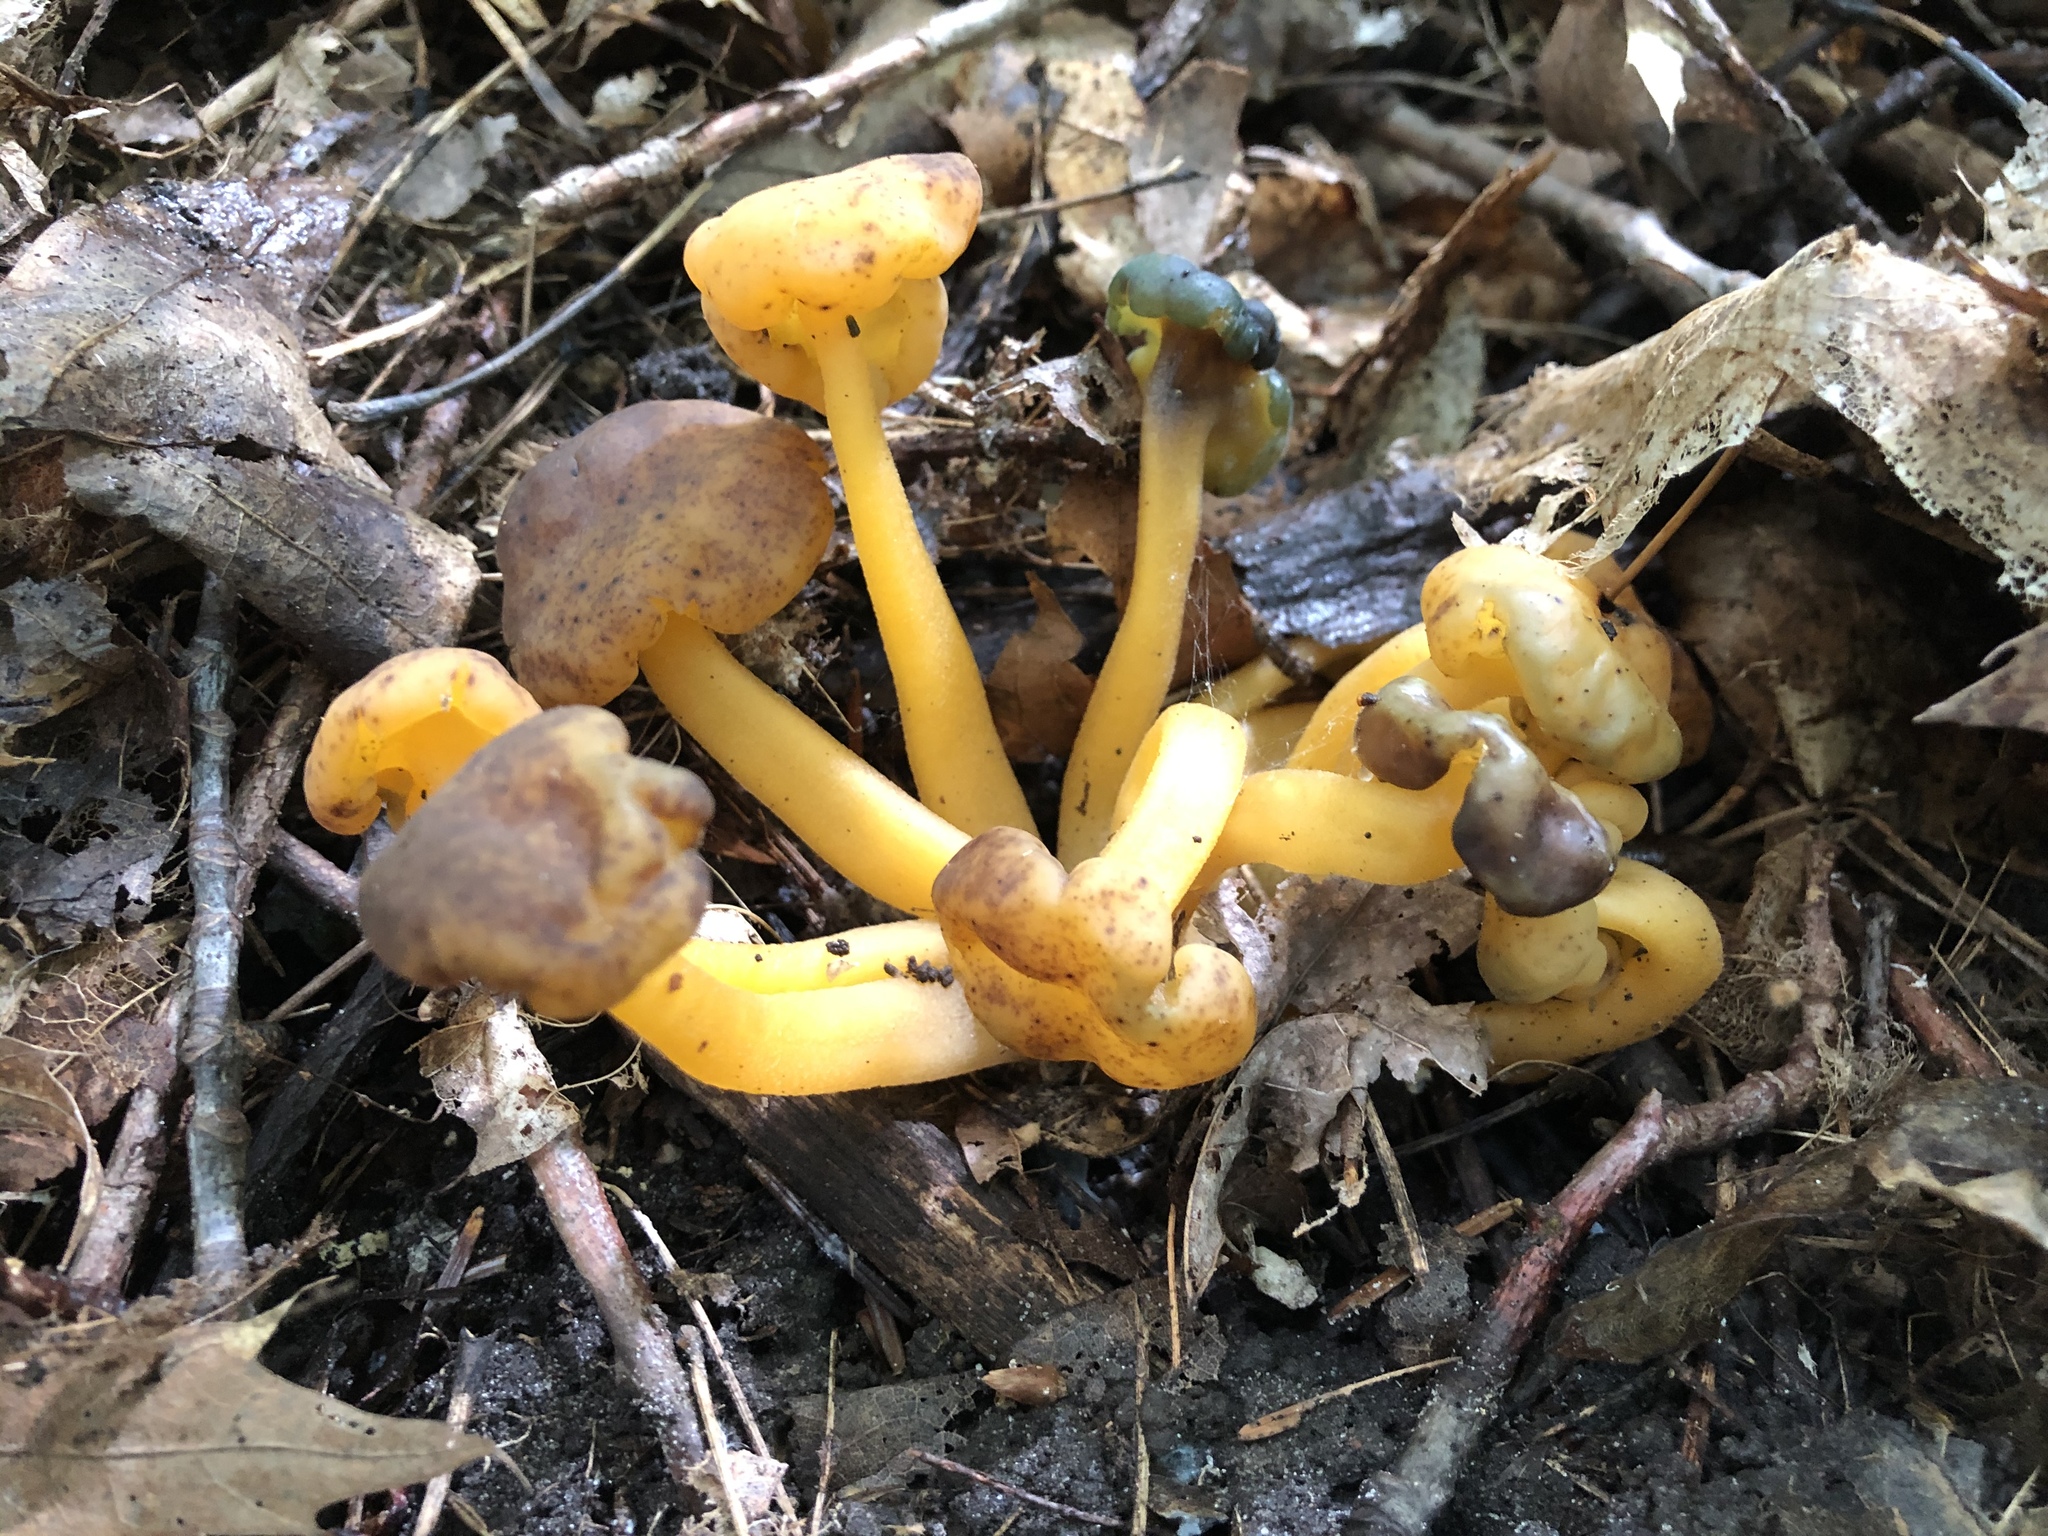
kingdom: Fungi
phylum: Ascomycota
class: Leotiomycetes
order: Leotiales
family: Leotiaceae
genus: Leotia
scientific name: Leotia lubrica
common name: Jellybaby
